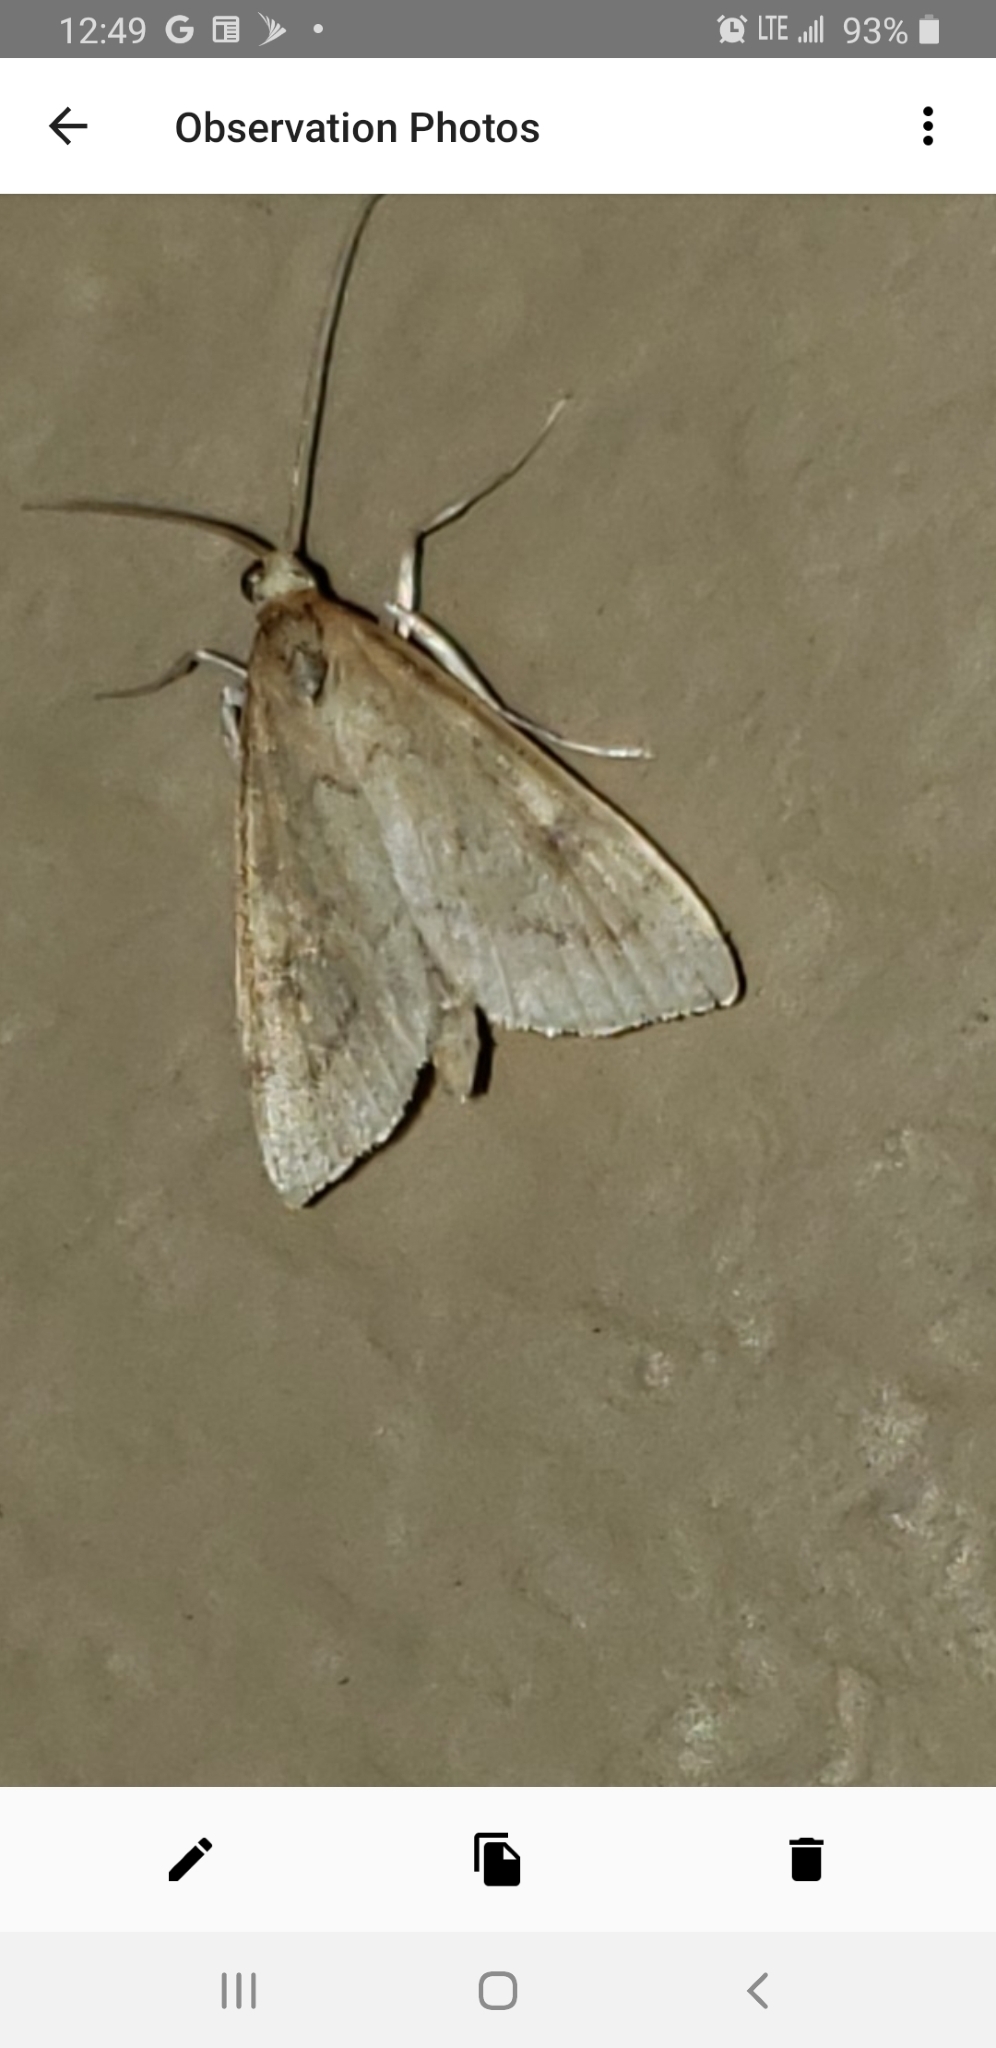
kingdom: Animalia
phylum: Arthropoda
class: Insecta
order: Lepidoptera
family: Crambidae
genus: Udea
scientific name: Udea rubigalis
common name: Celery leaftier moth
